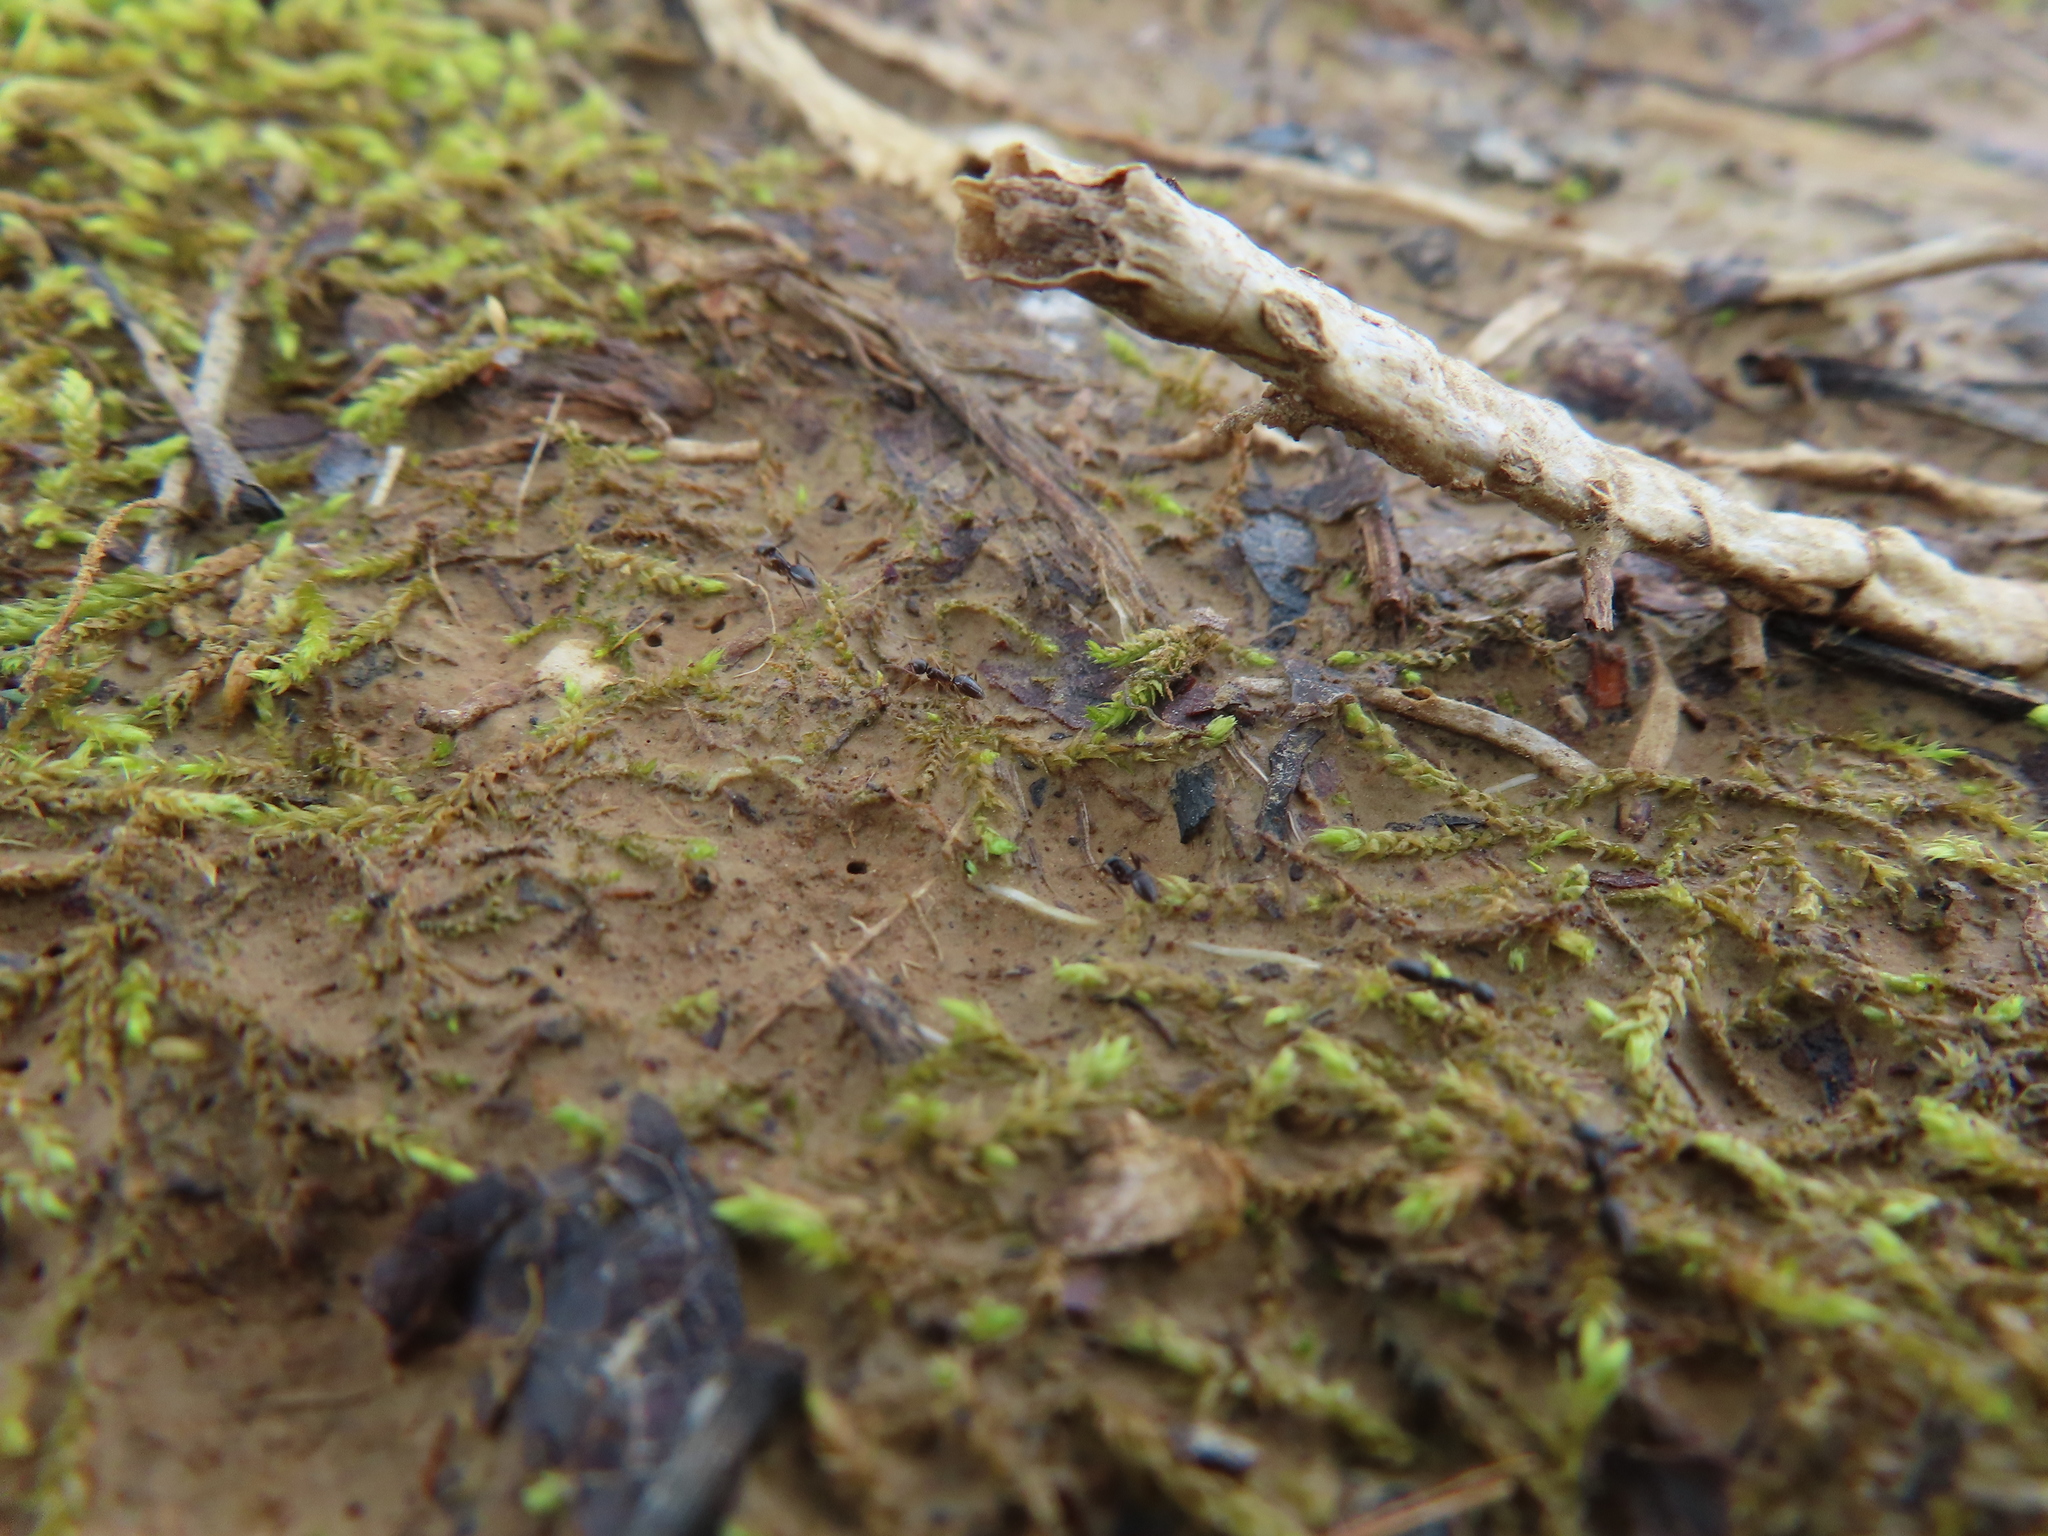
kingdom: Animalia
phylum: Arthropoda
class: Insecta
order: Hymenoptera
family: Formicidae
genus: Tapinoma
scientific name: Tapinoma sessile
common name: Odorous house ant
